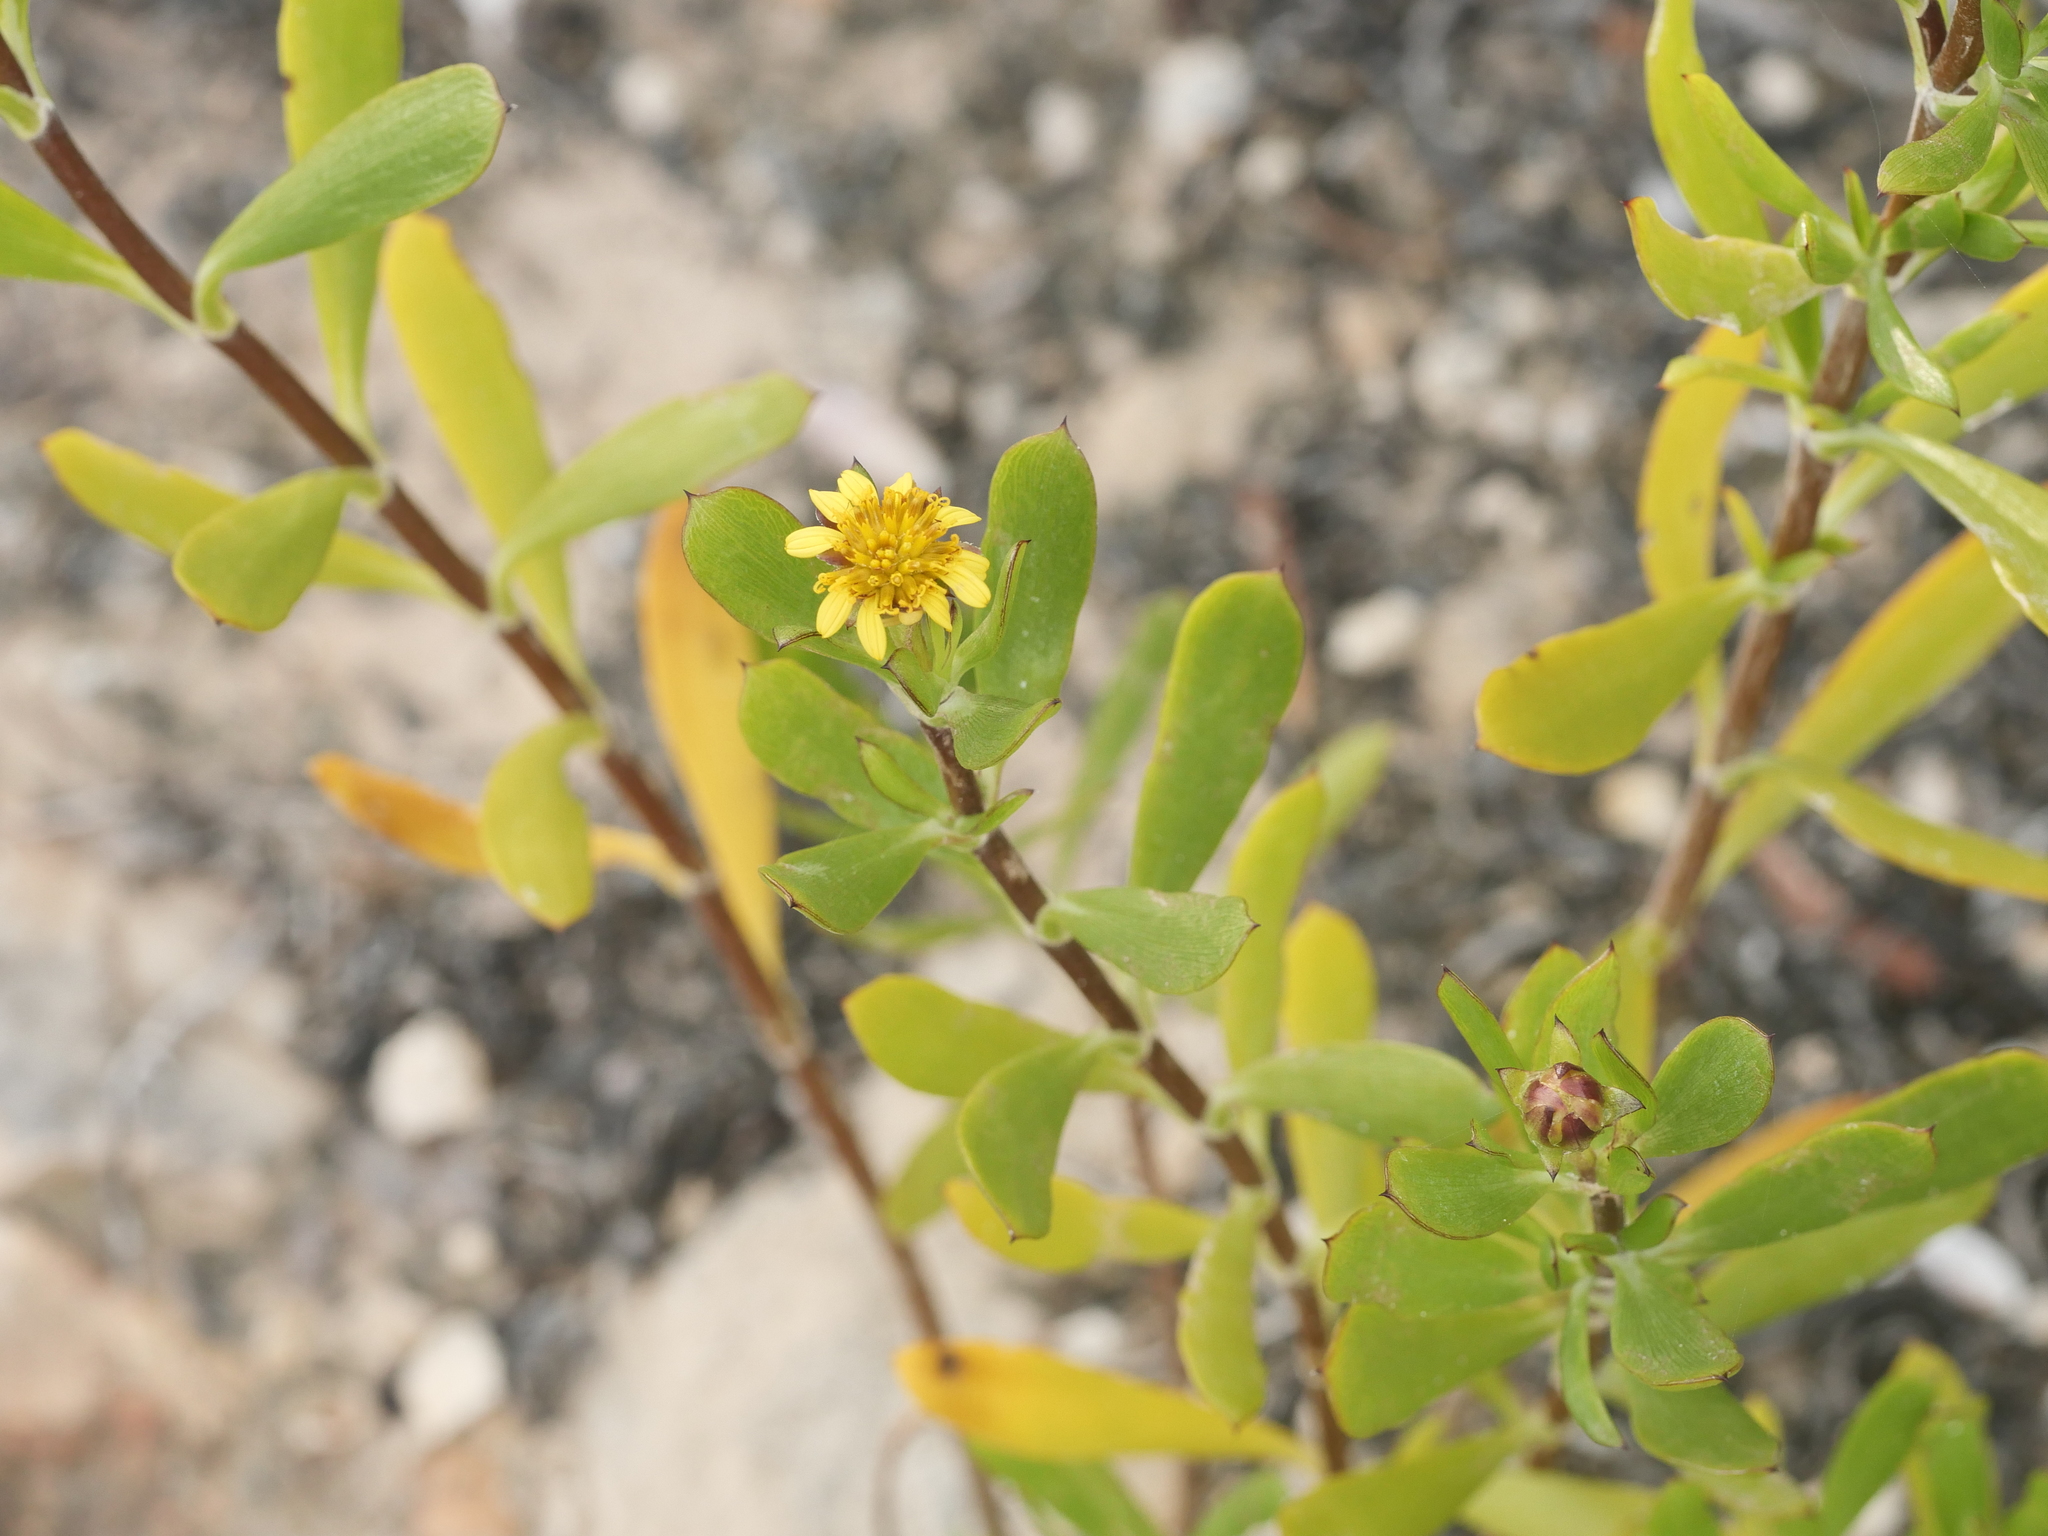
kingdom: Plantae
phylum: Tracheophyta
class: Magnoliopsida
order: Asterales
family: Asteraceae
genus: Borrichia
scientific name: Borrichia arborescens
